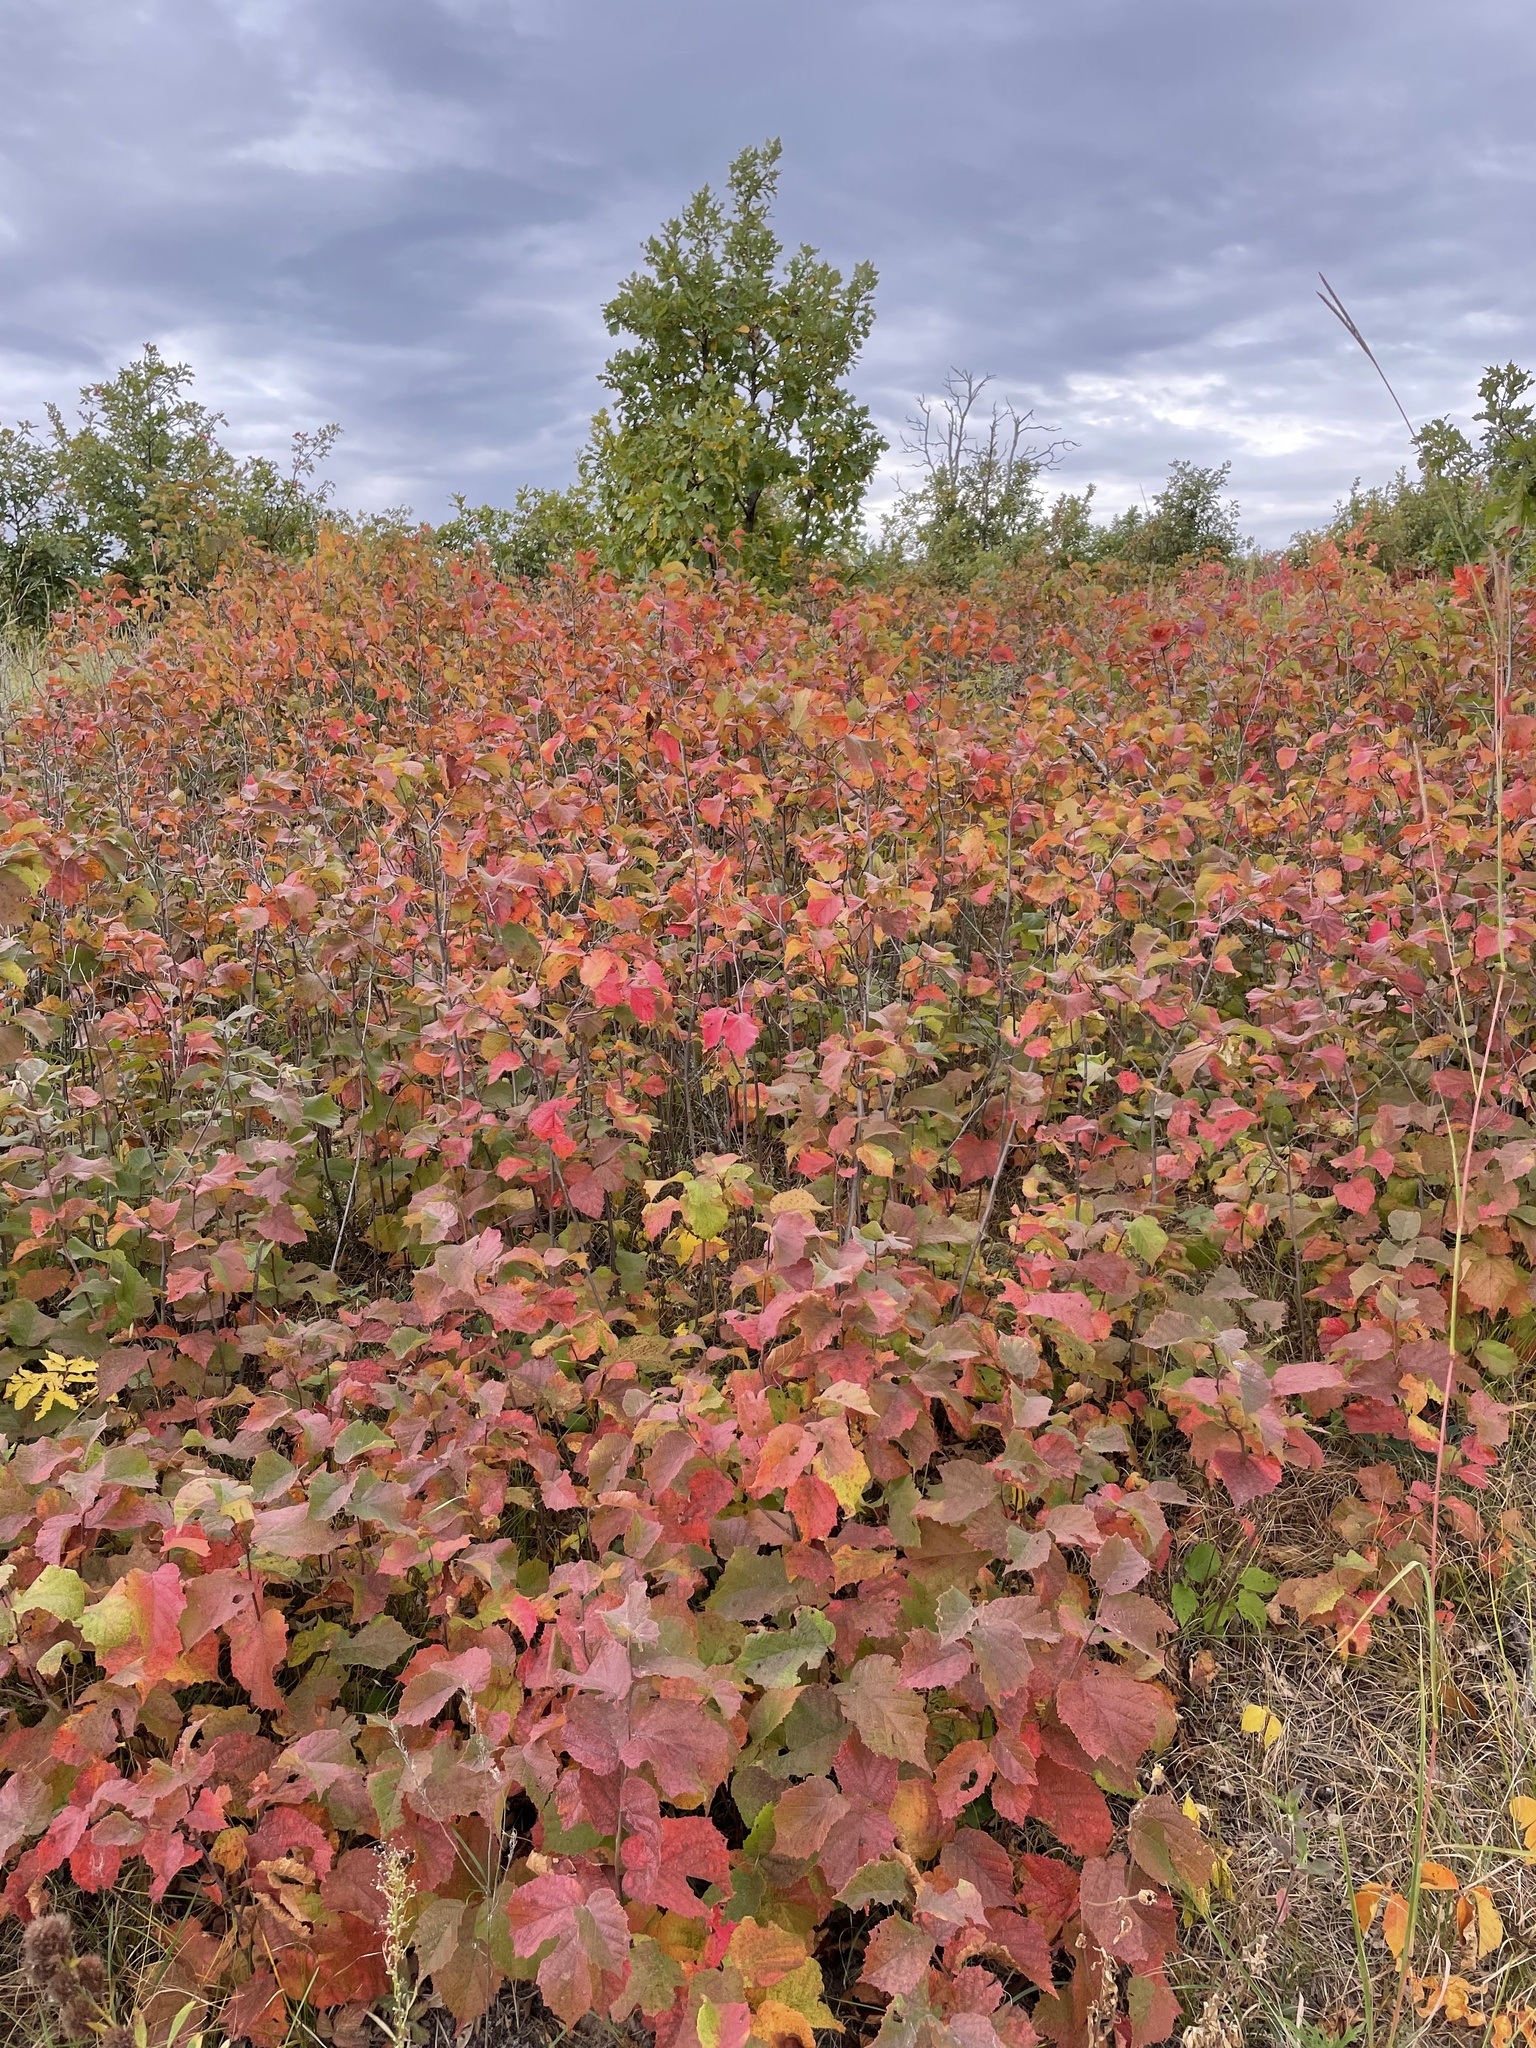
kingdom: Plantae
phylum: Tracheophyta
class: Magnoliopsida
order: Fagales
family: Betulaceae
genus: Corylus
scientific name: Corylus americana
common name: American hazel
